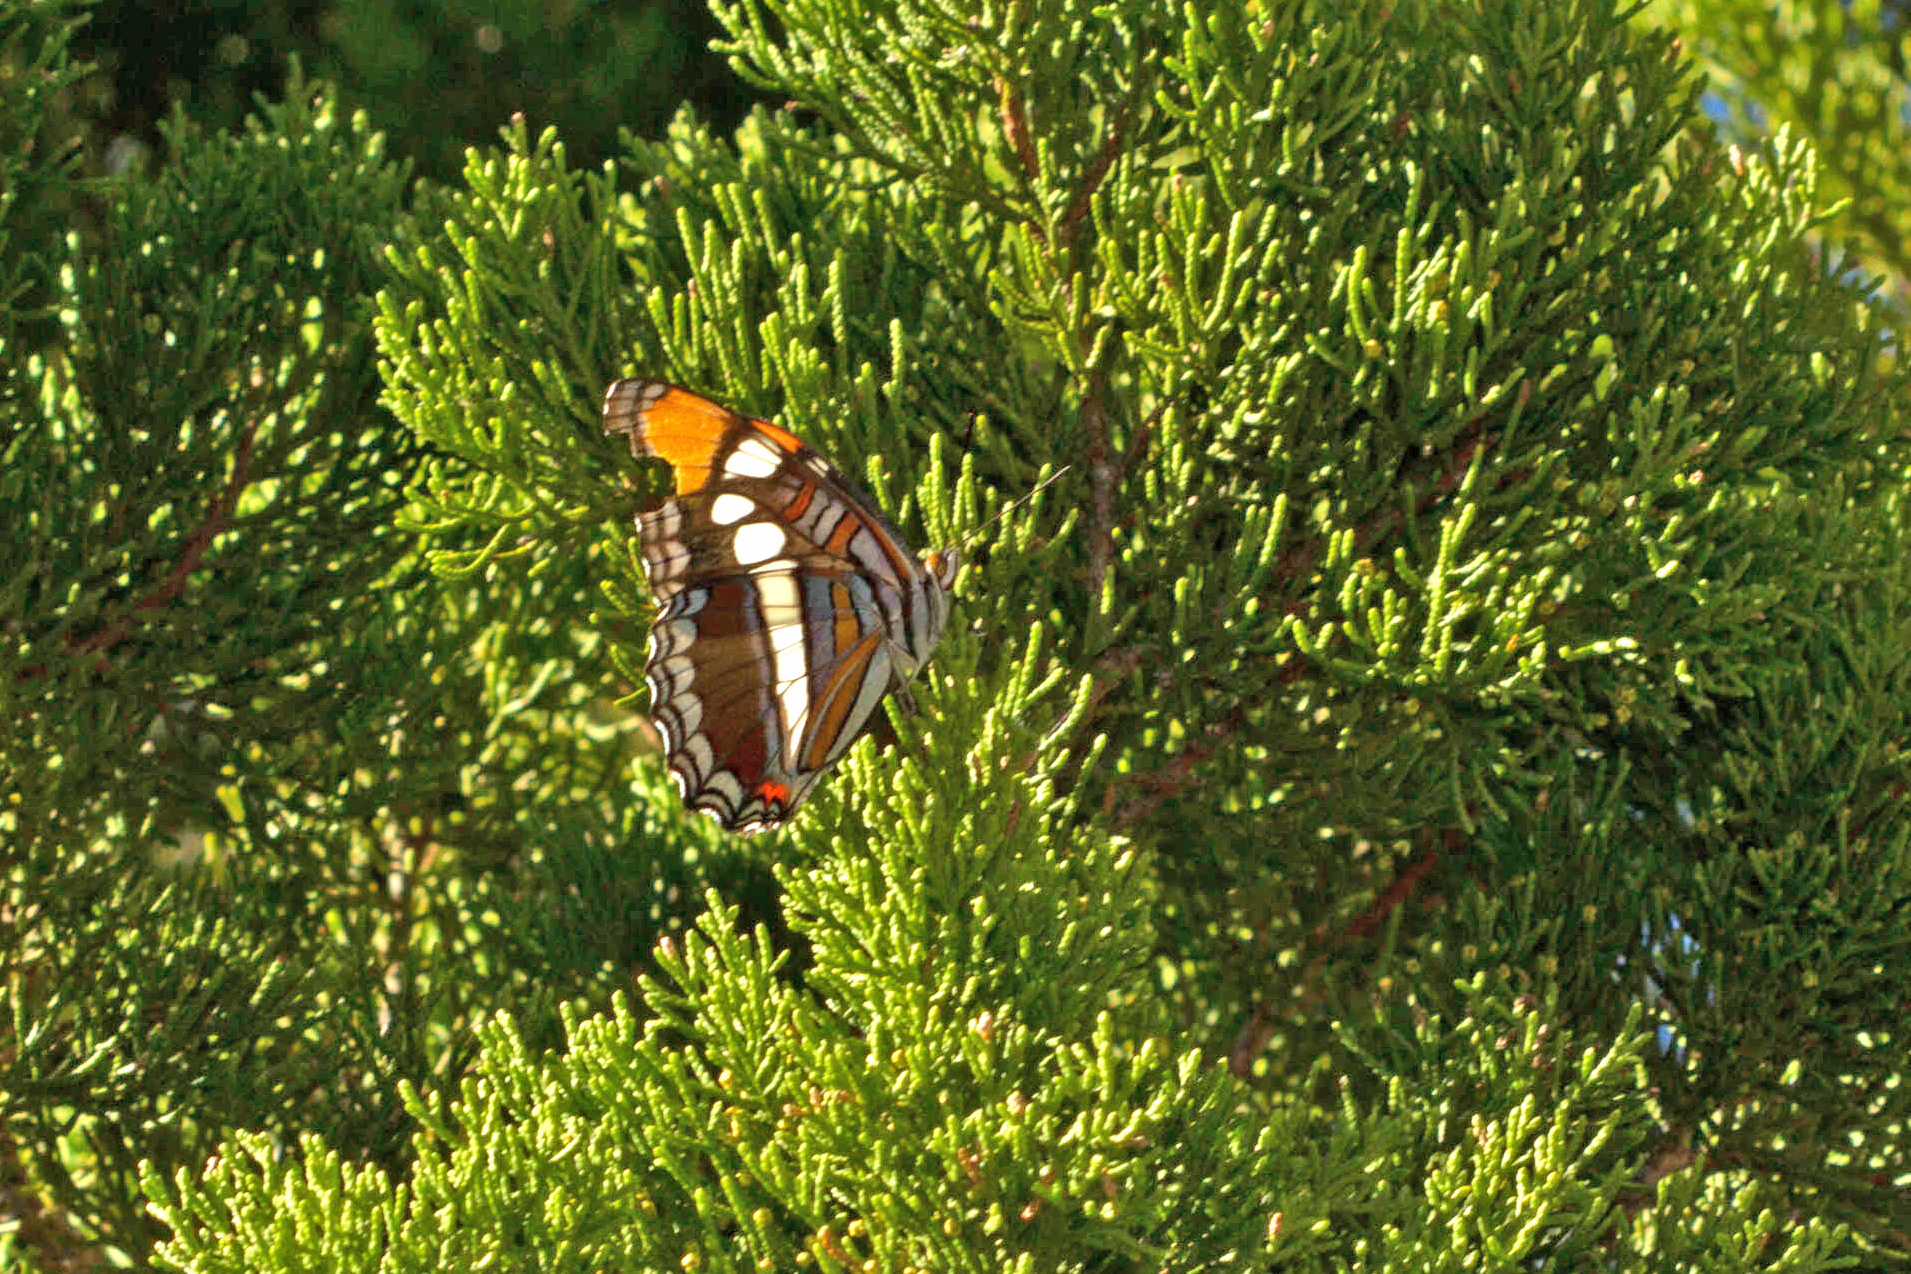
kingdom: Animalia
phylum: Arthropoda
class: Insecta
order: Lepidoptera
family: Nymphalidae
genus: Limenitis
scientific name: Limenitis bredowii
